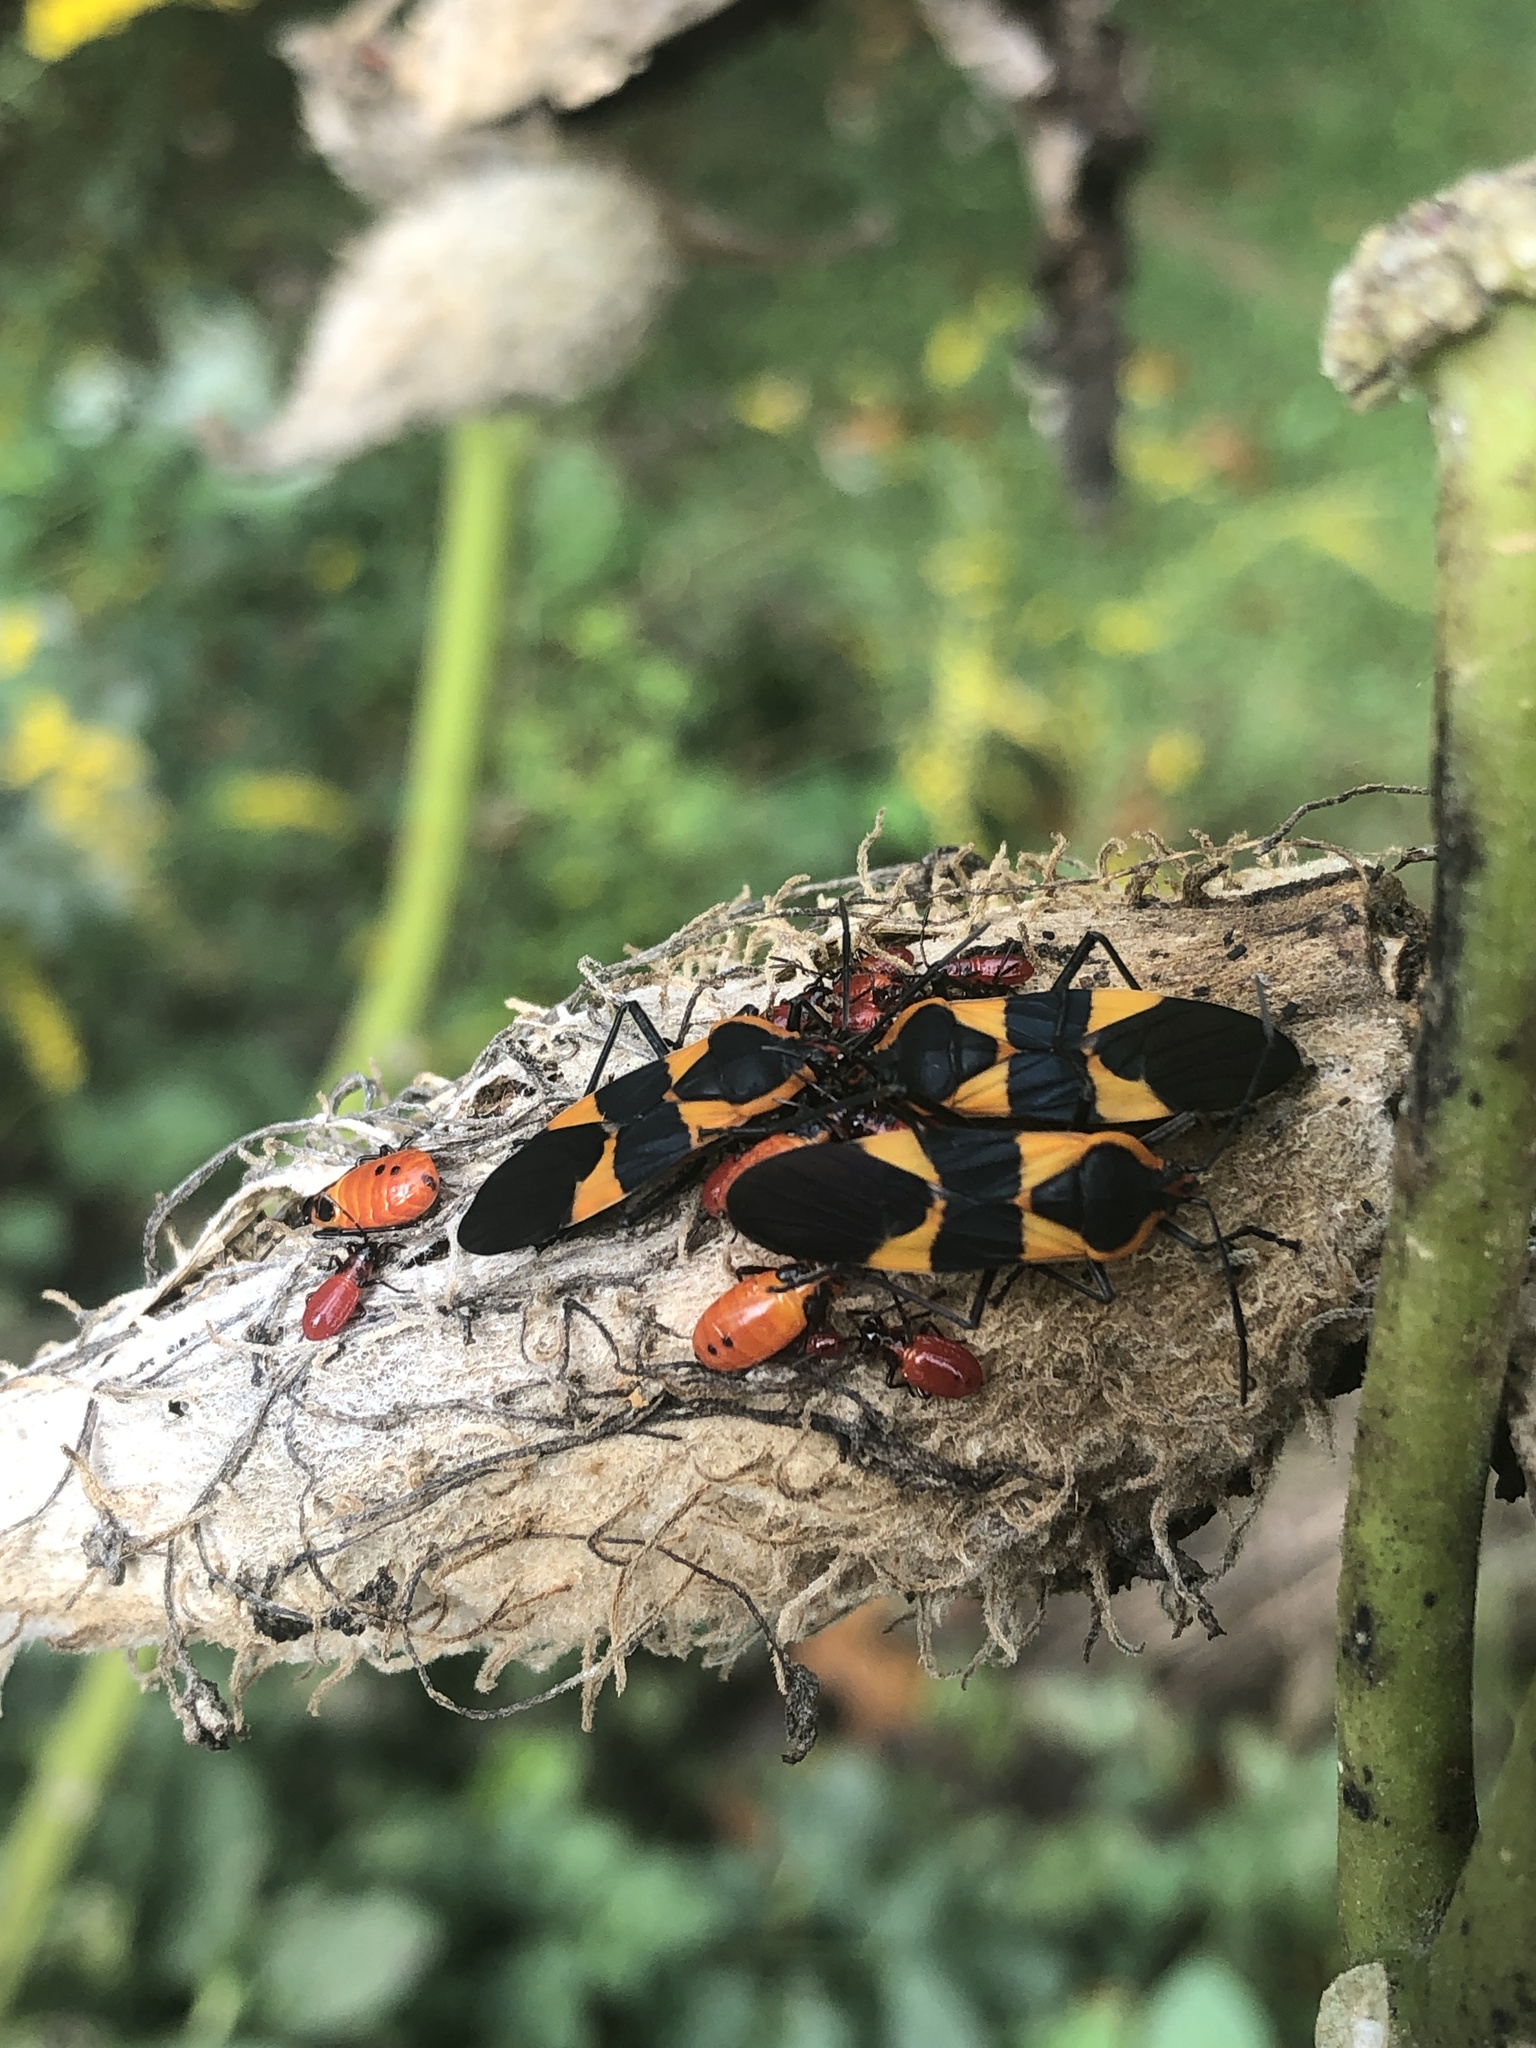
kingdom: Animalia
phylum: Arthropoda
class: Insecta
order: Hemiptera
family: Lygaeidae
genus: Oncopeltus
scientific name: Oncopeltus fasciatus
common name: Large milkweed bug
